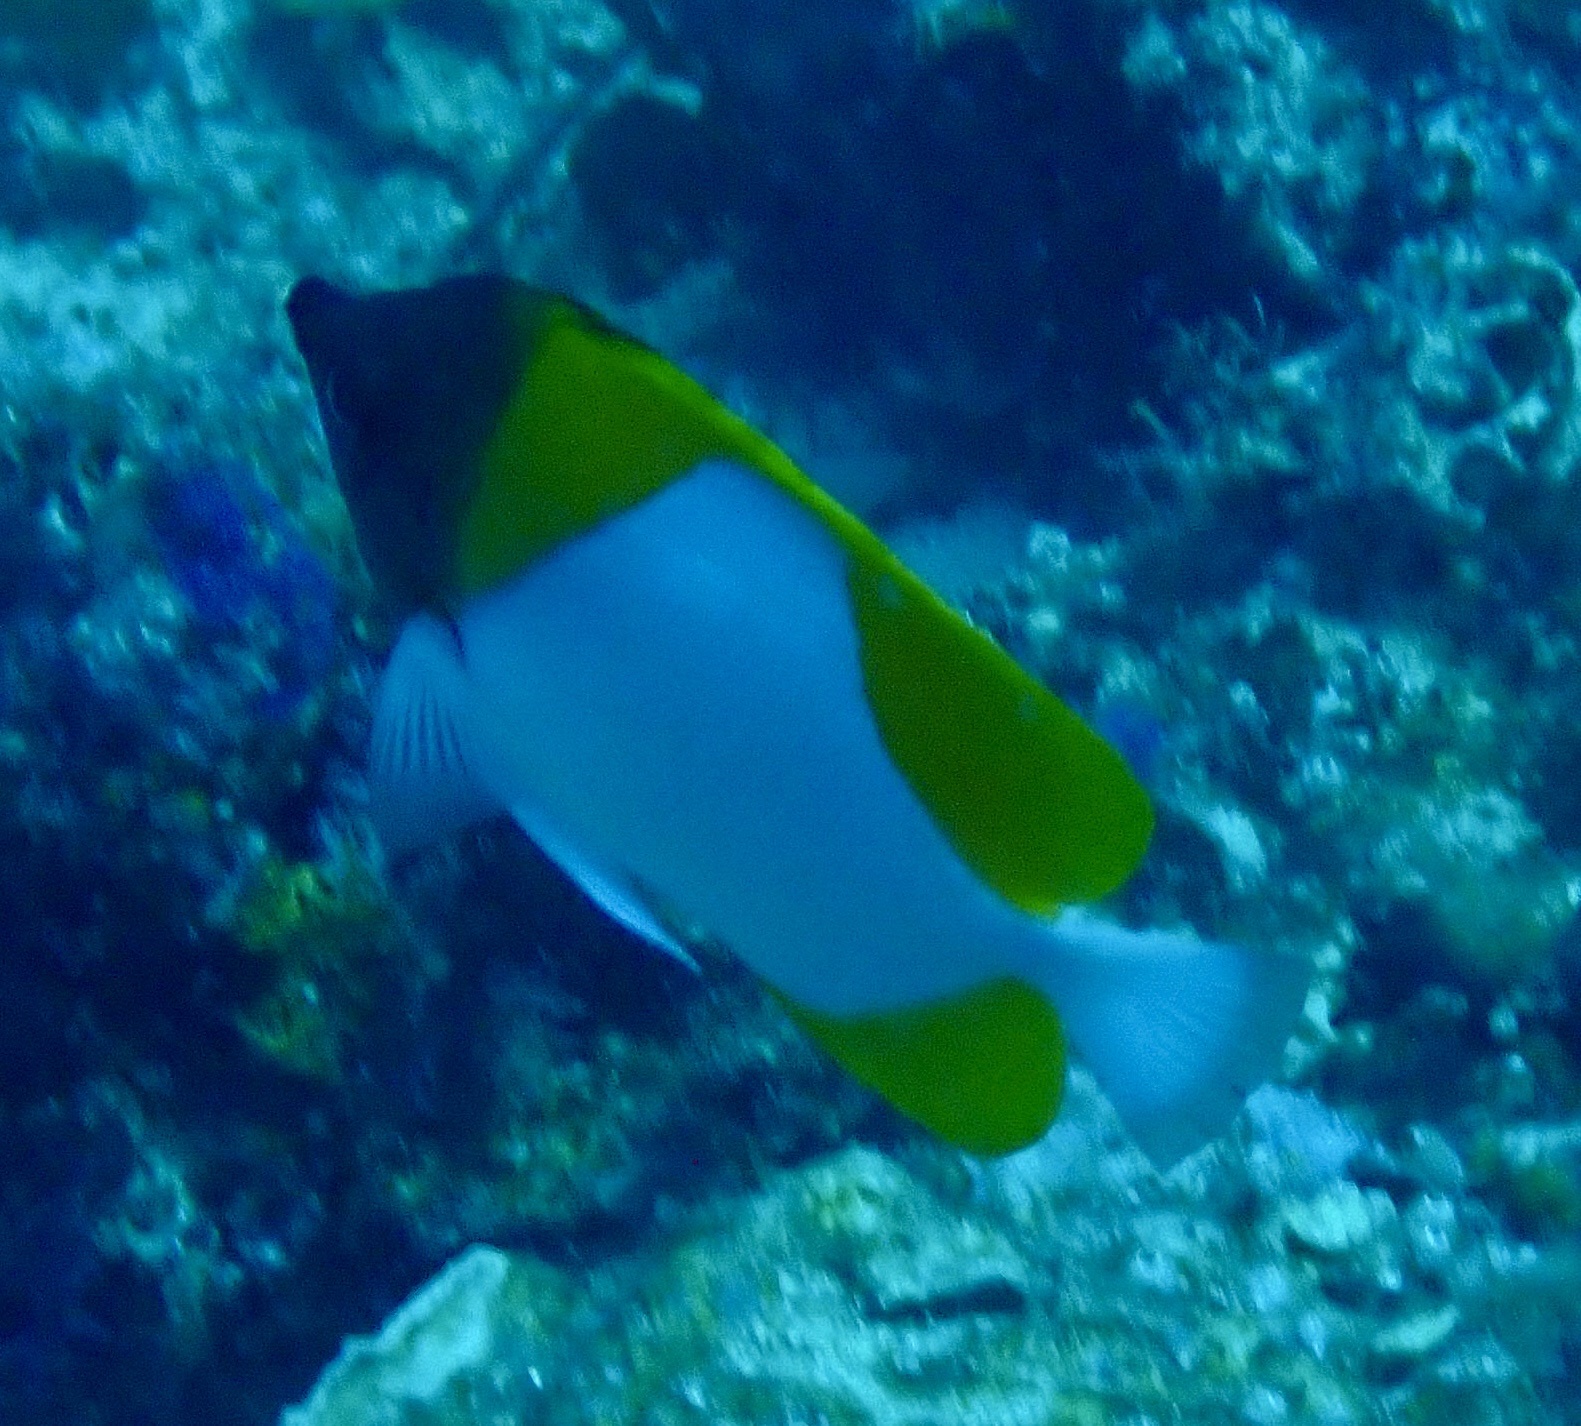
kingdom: Animalia
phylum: Chordata
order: Perciformes
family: Chaetodontidae
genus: Hemitaurichthys
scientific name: Hemitaurichthys polylepis
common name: Brushytoothed butterflyfish
